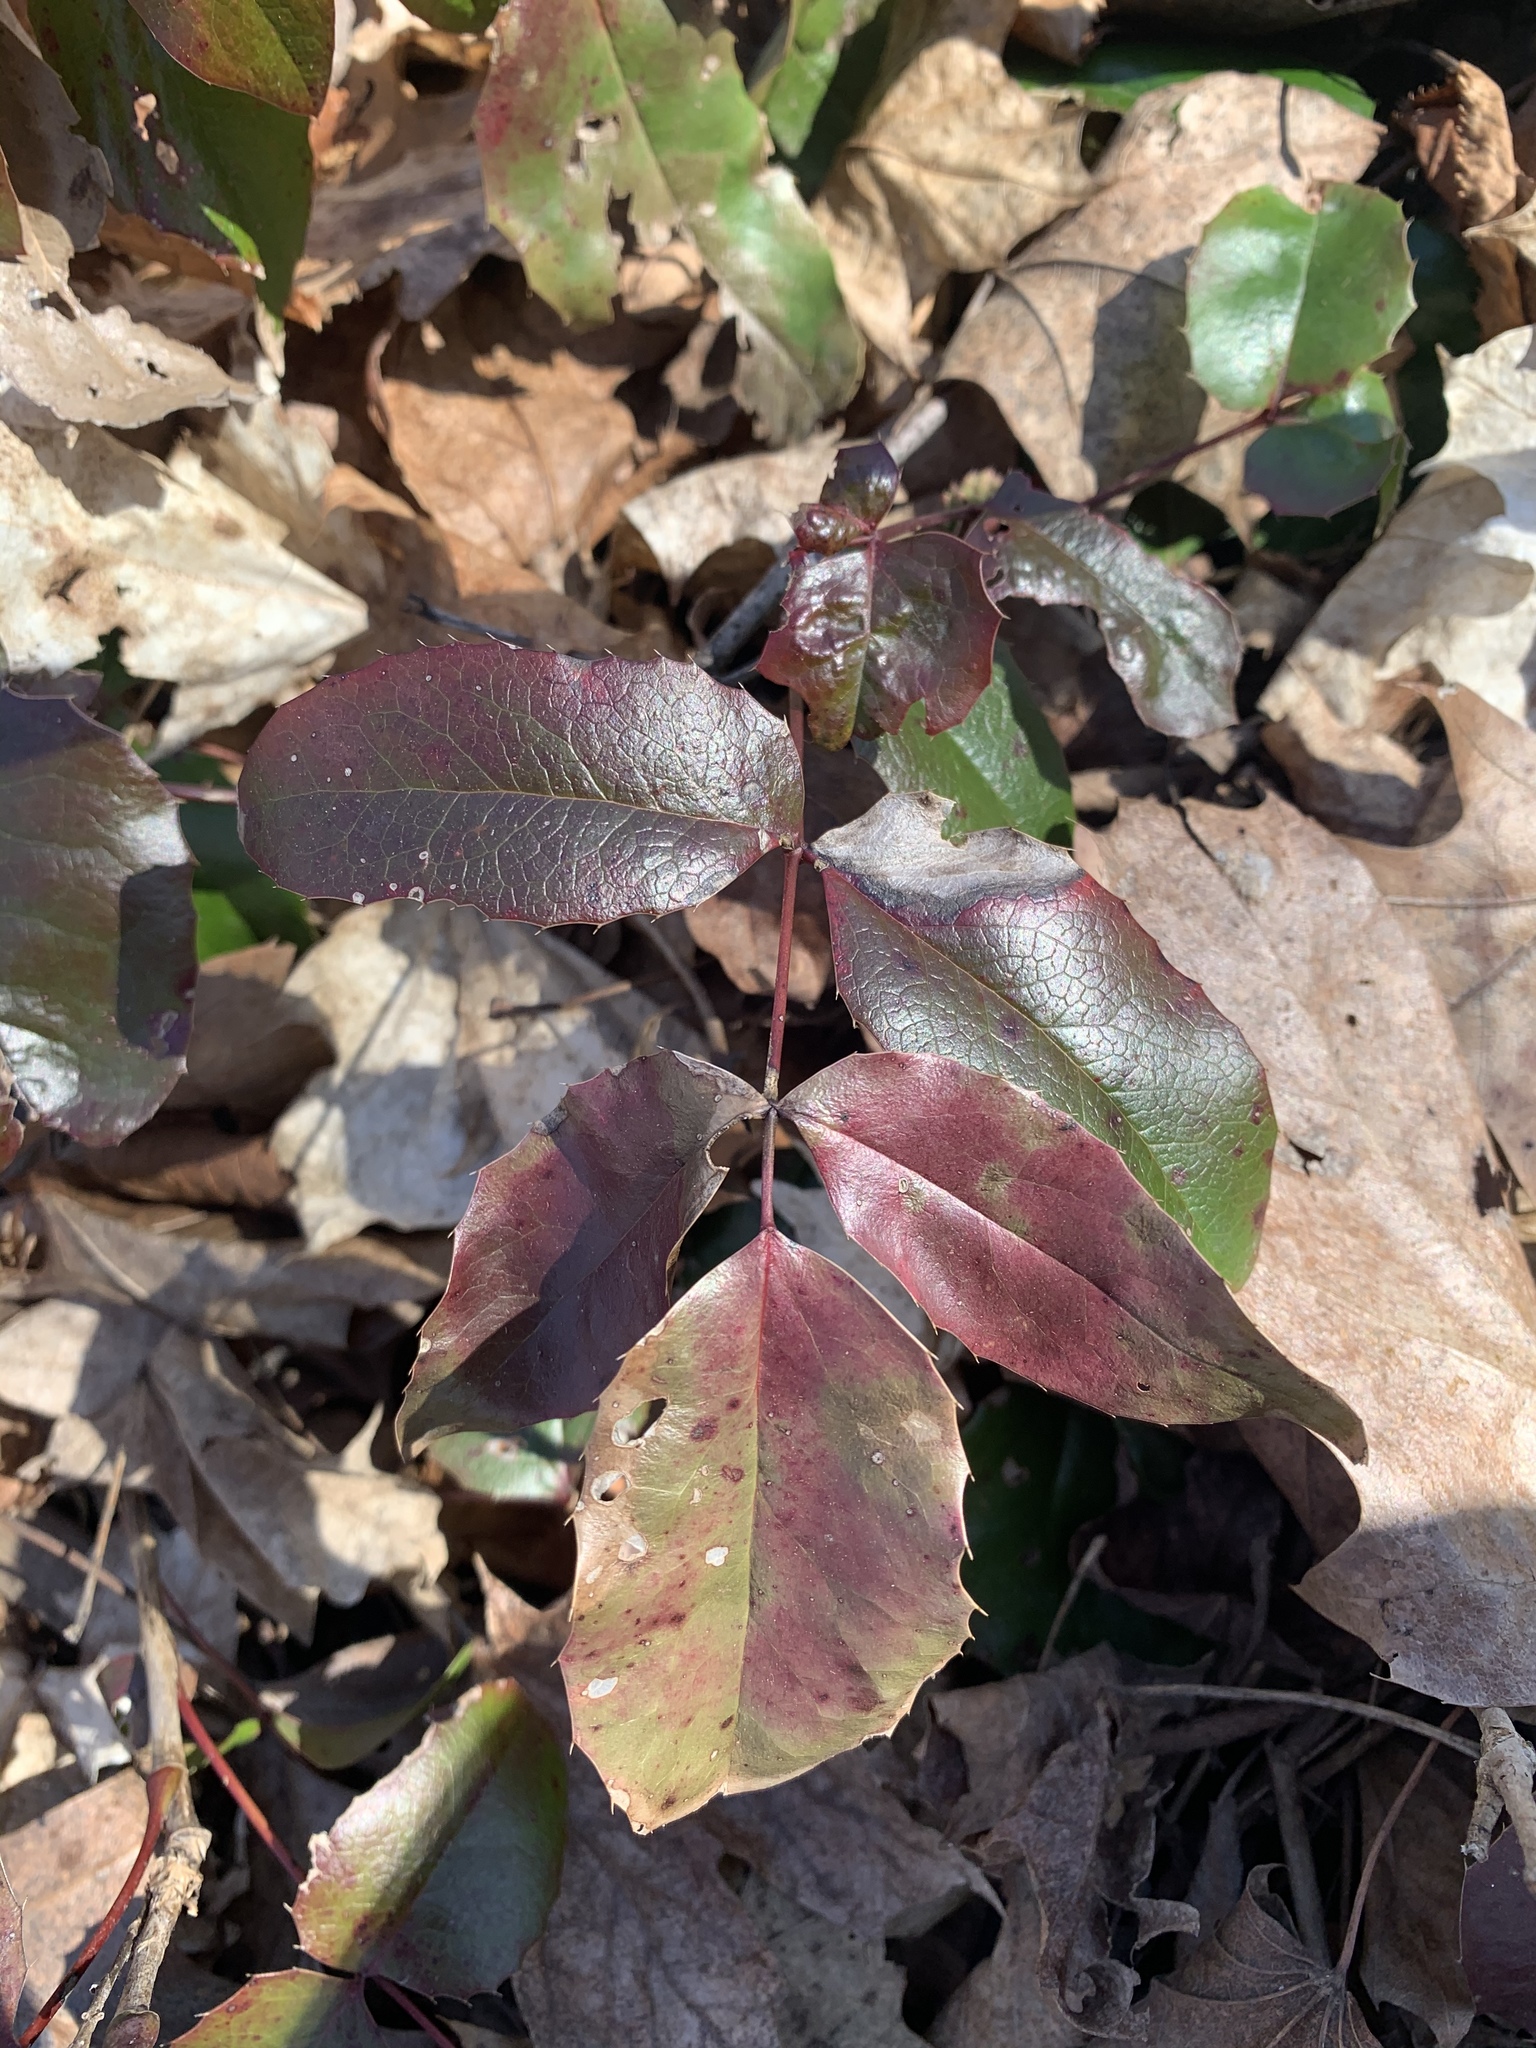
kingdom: Plantae
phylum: Tracheophyta
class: Magnoliopsida
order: Ranunculales
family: Berberidaceae
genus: Mahonia
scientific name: Mahonia aquifolium
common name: Oregon-grape
